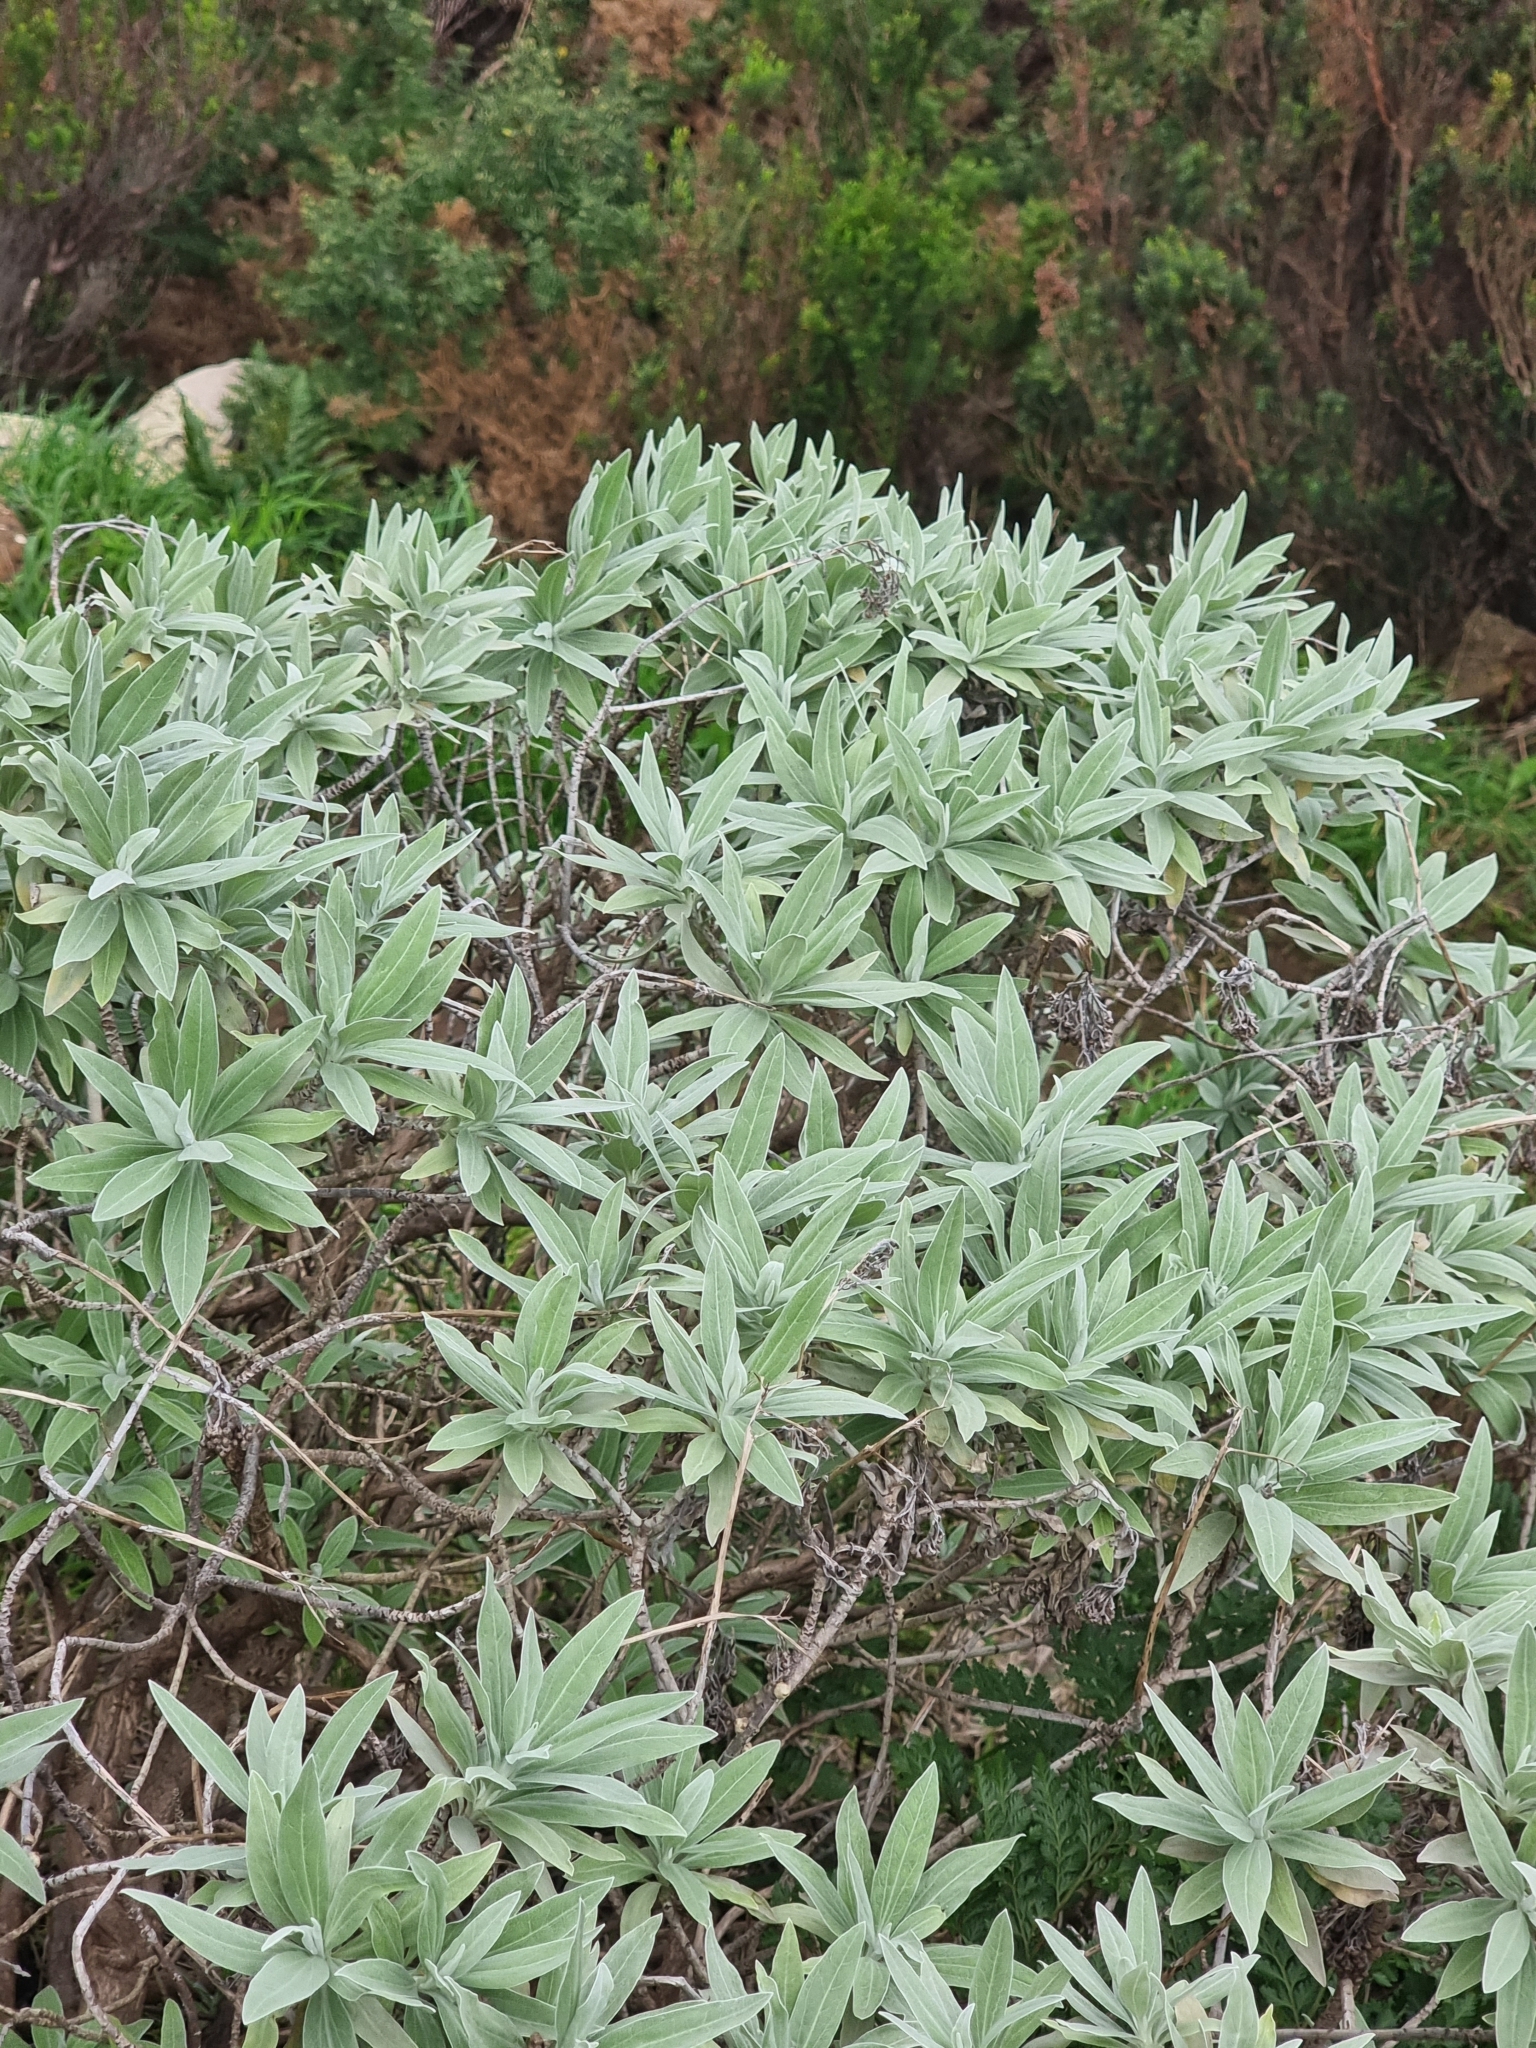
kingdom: Plantae
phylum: Tracheophyta
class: Magnoliopsida
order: Asterales
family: Asteraceae
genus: Helichrysum
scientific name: Helichrysum melaleucum
